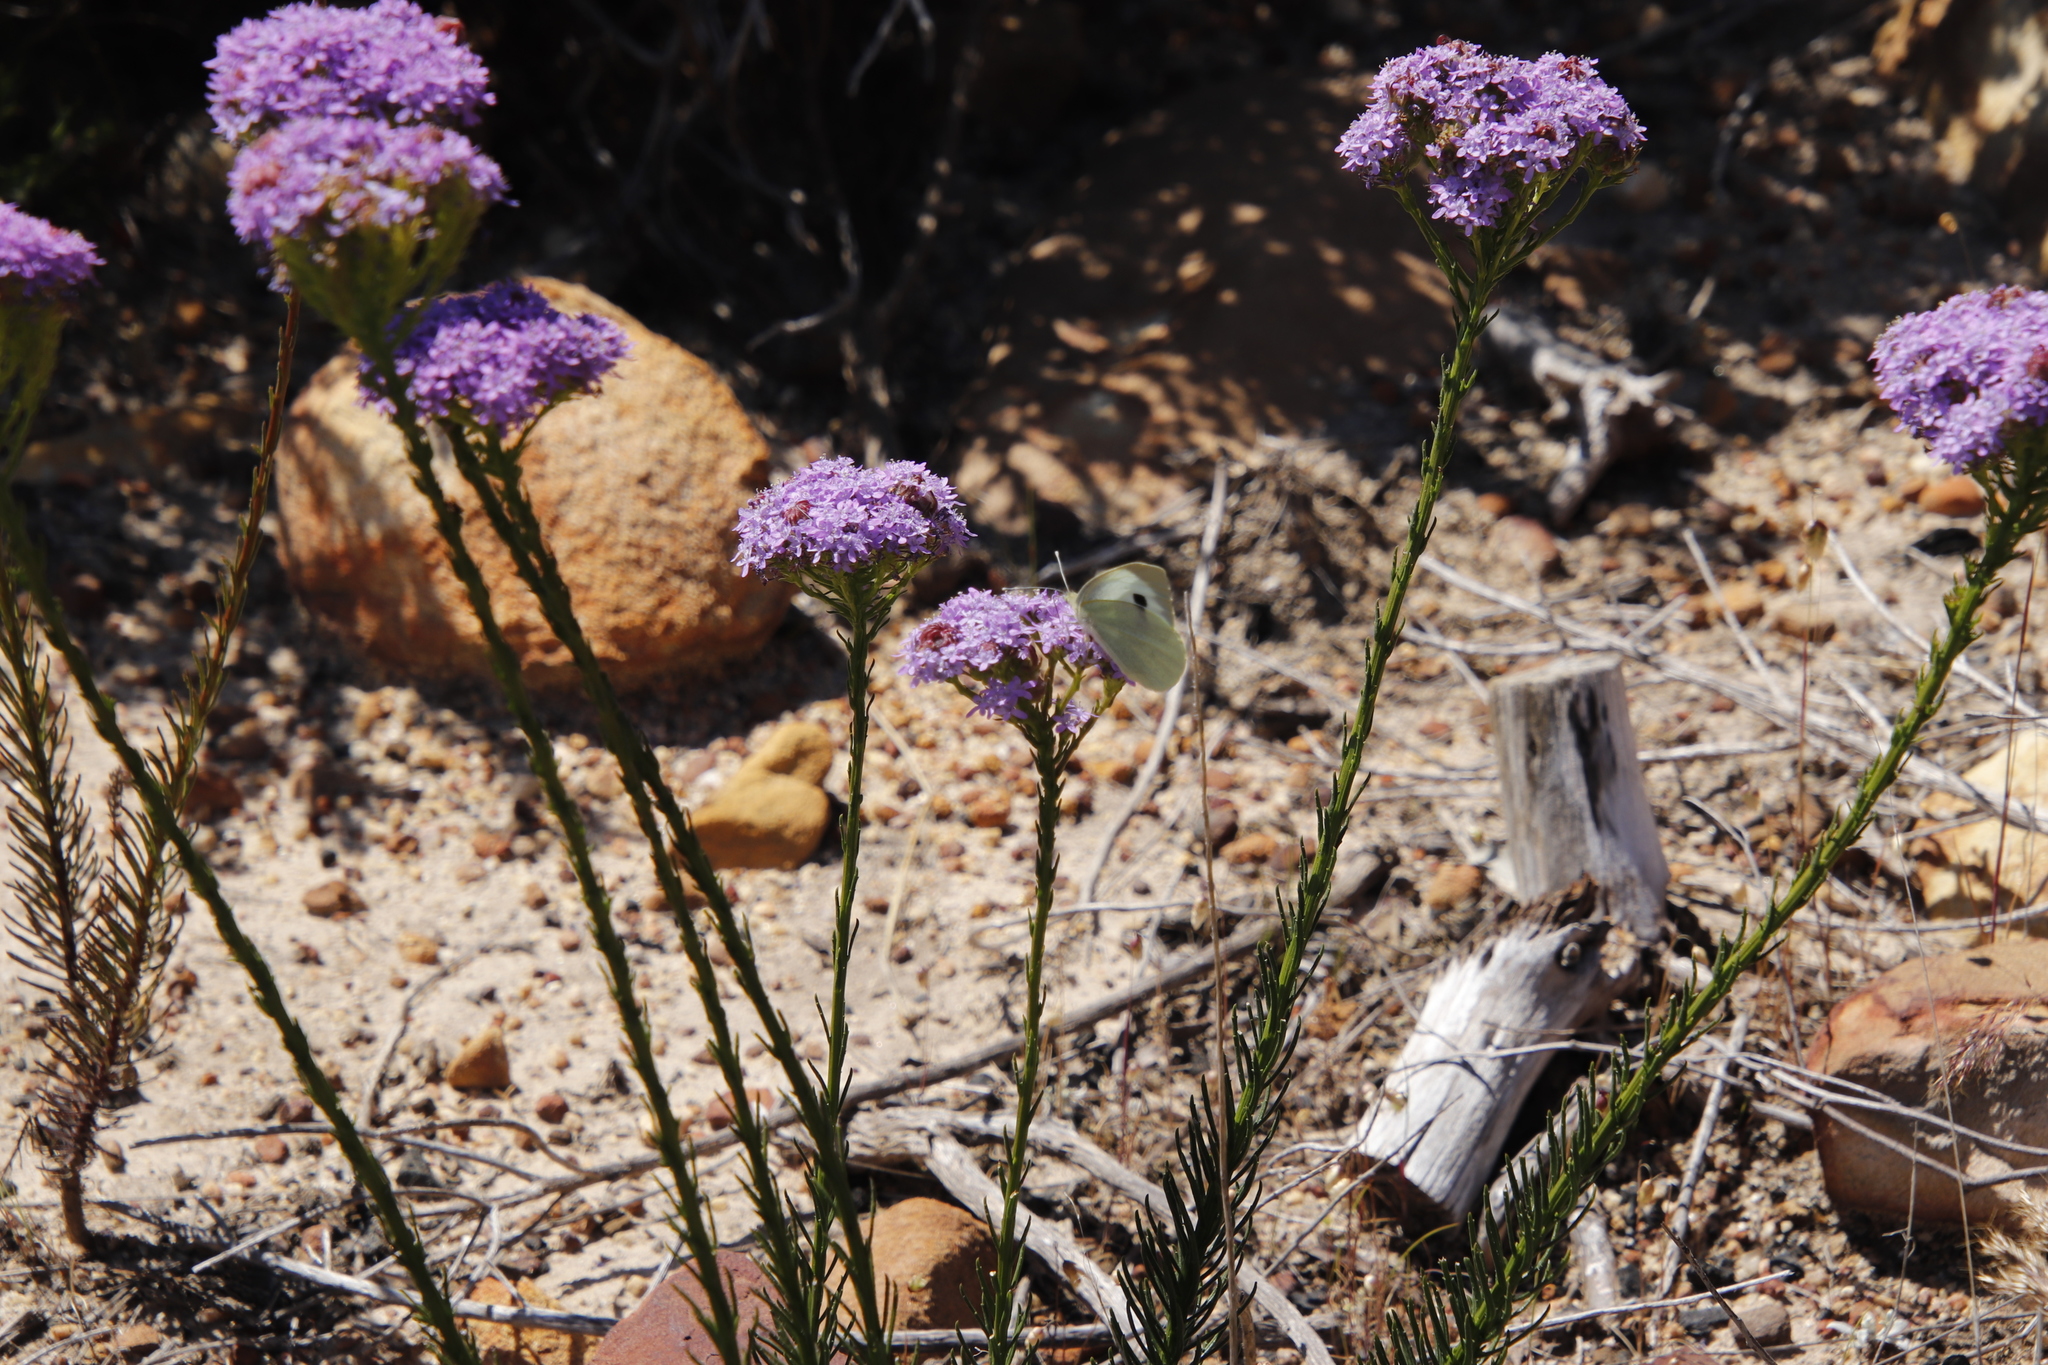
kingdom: Plantae
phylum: Tracheophyta
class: Magnoliopsida
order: Lamiales
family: Scrophulariaceae
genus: Pseudoselago
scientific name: Pseudoselago spuria
